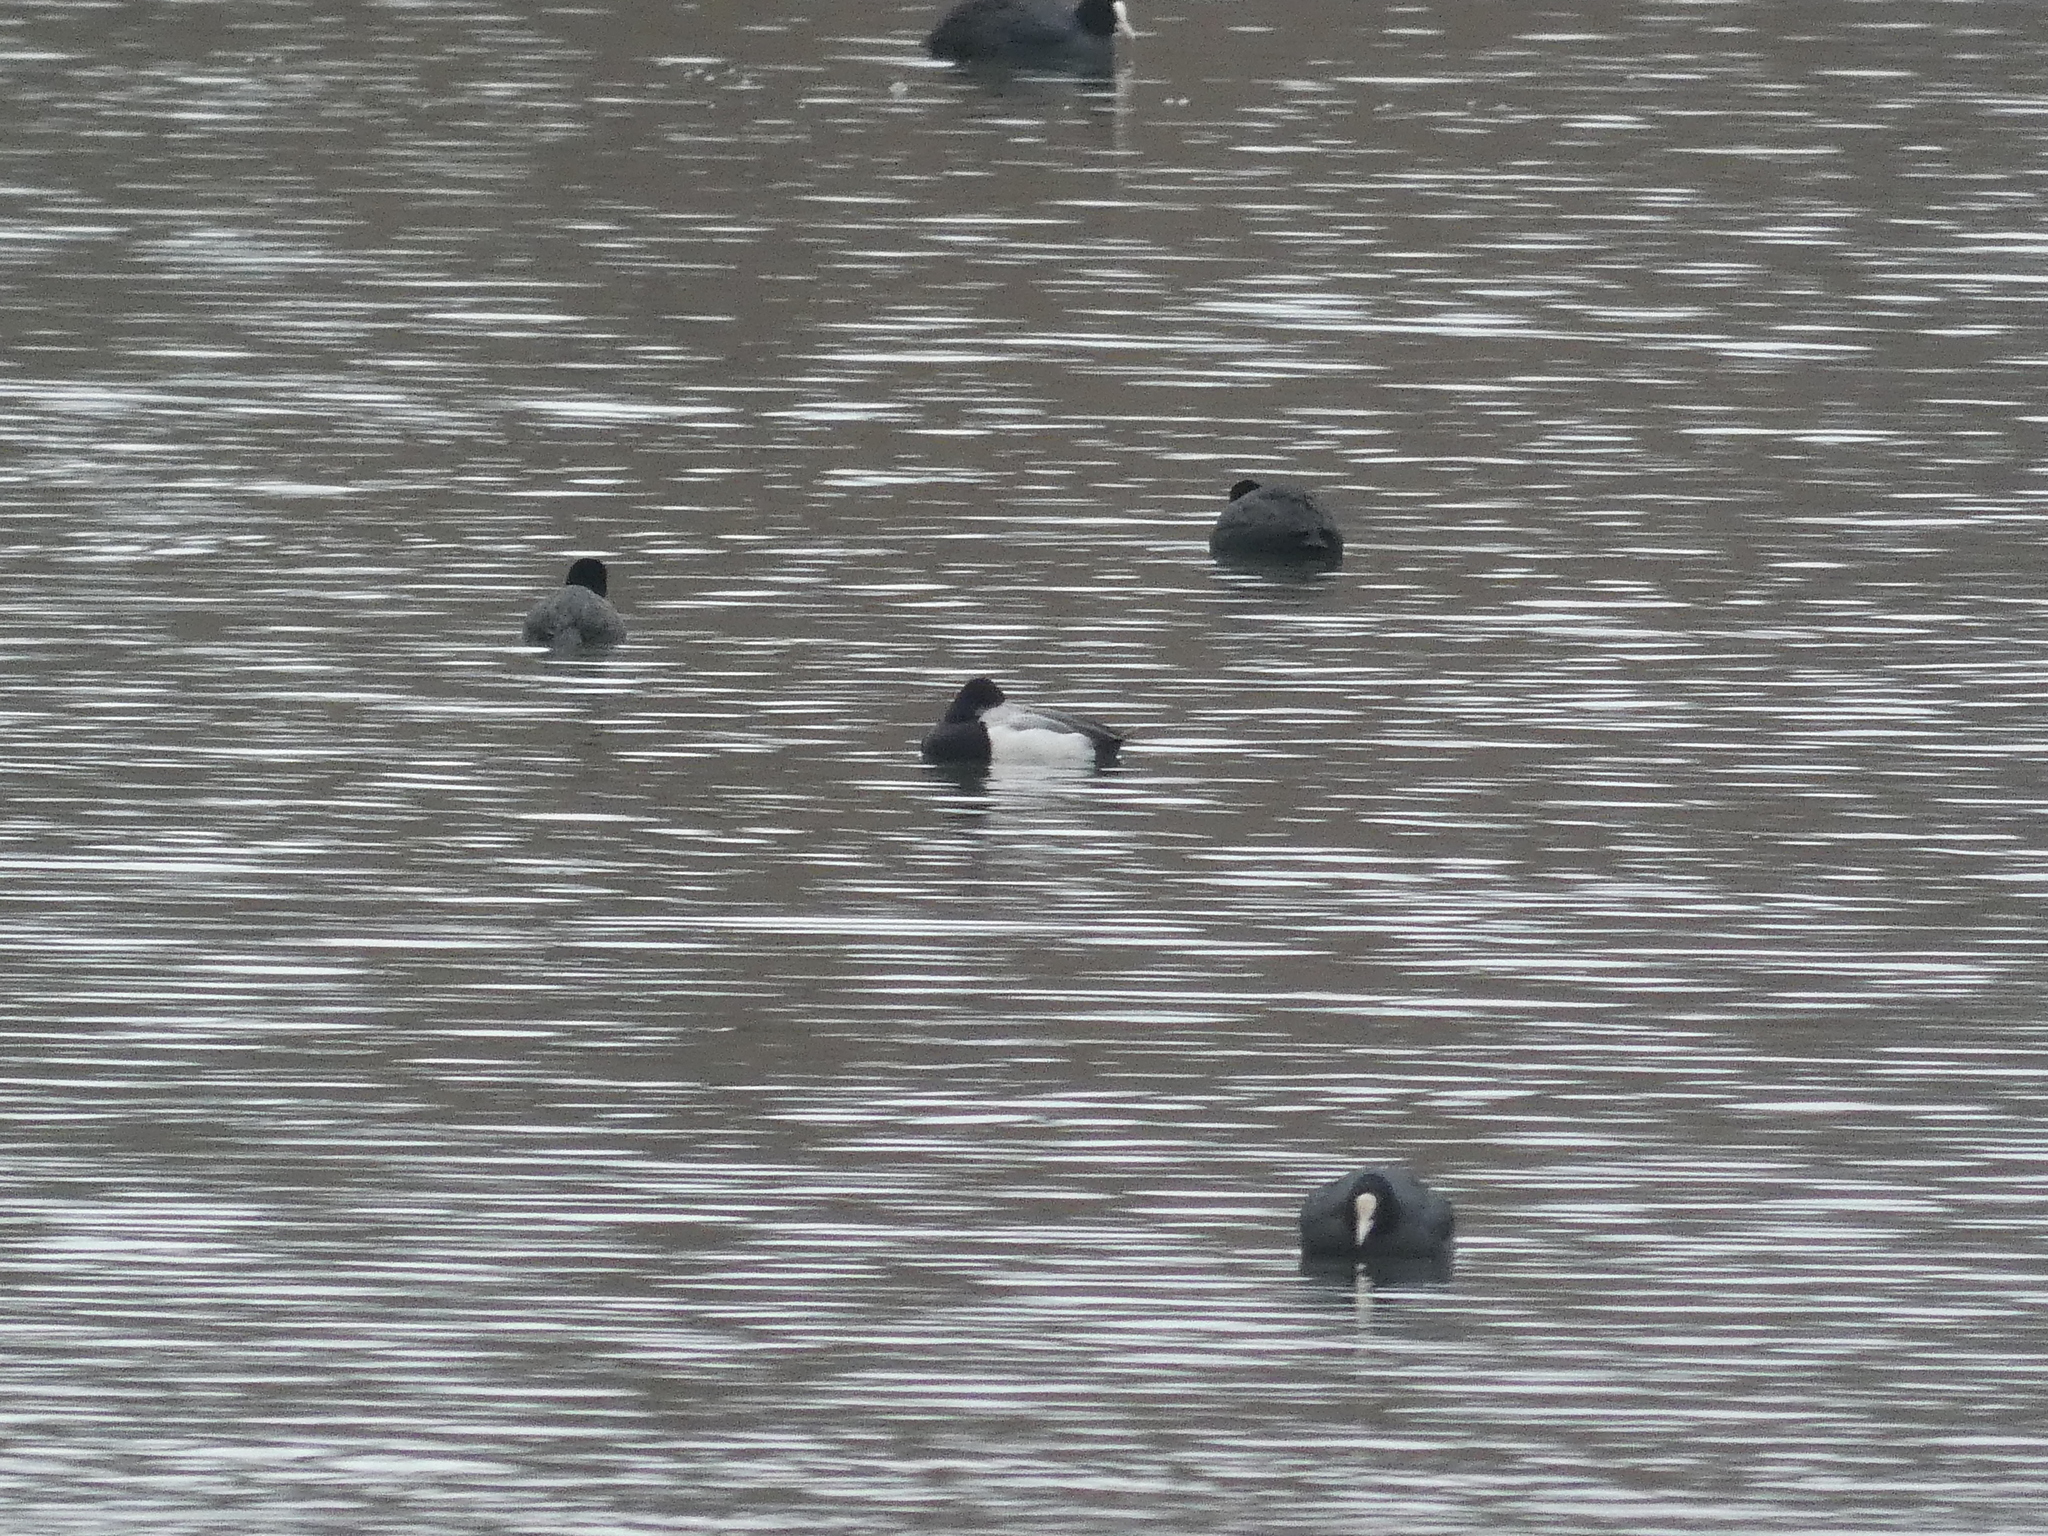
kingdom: Animalia
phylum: Chordata
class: Aves
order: Anseriformes
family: Anatidae
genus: Aythya
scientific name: Aythya affinis
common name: Lesser scaup
